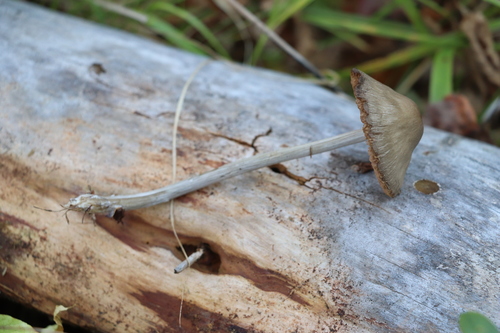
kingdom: Fungi
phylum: Basidiomycota
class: Agaricomycetes
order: Agaricales
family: Entolomataceae
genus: Entoloma
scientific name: Entoloma
